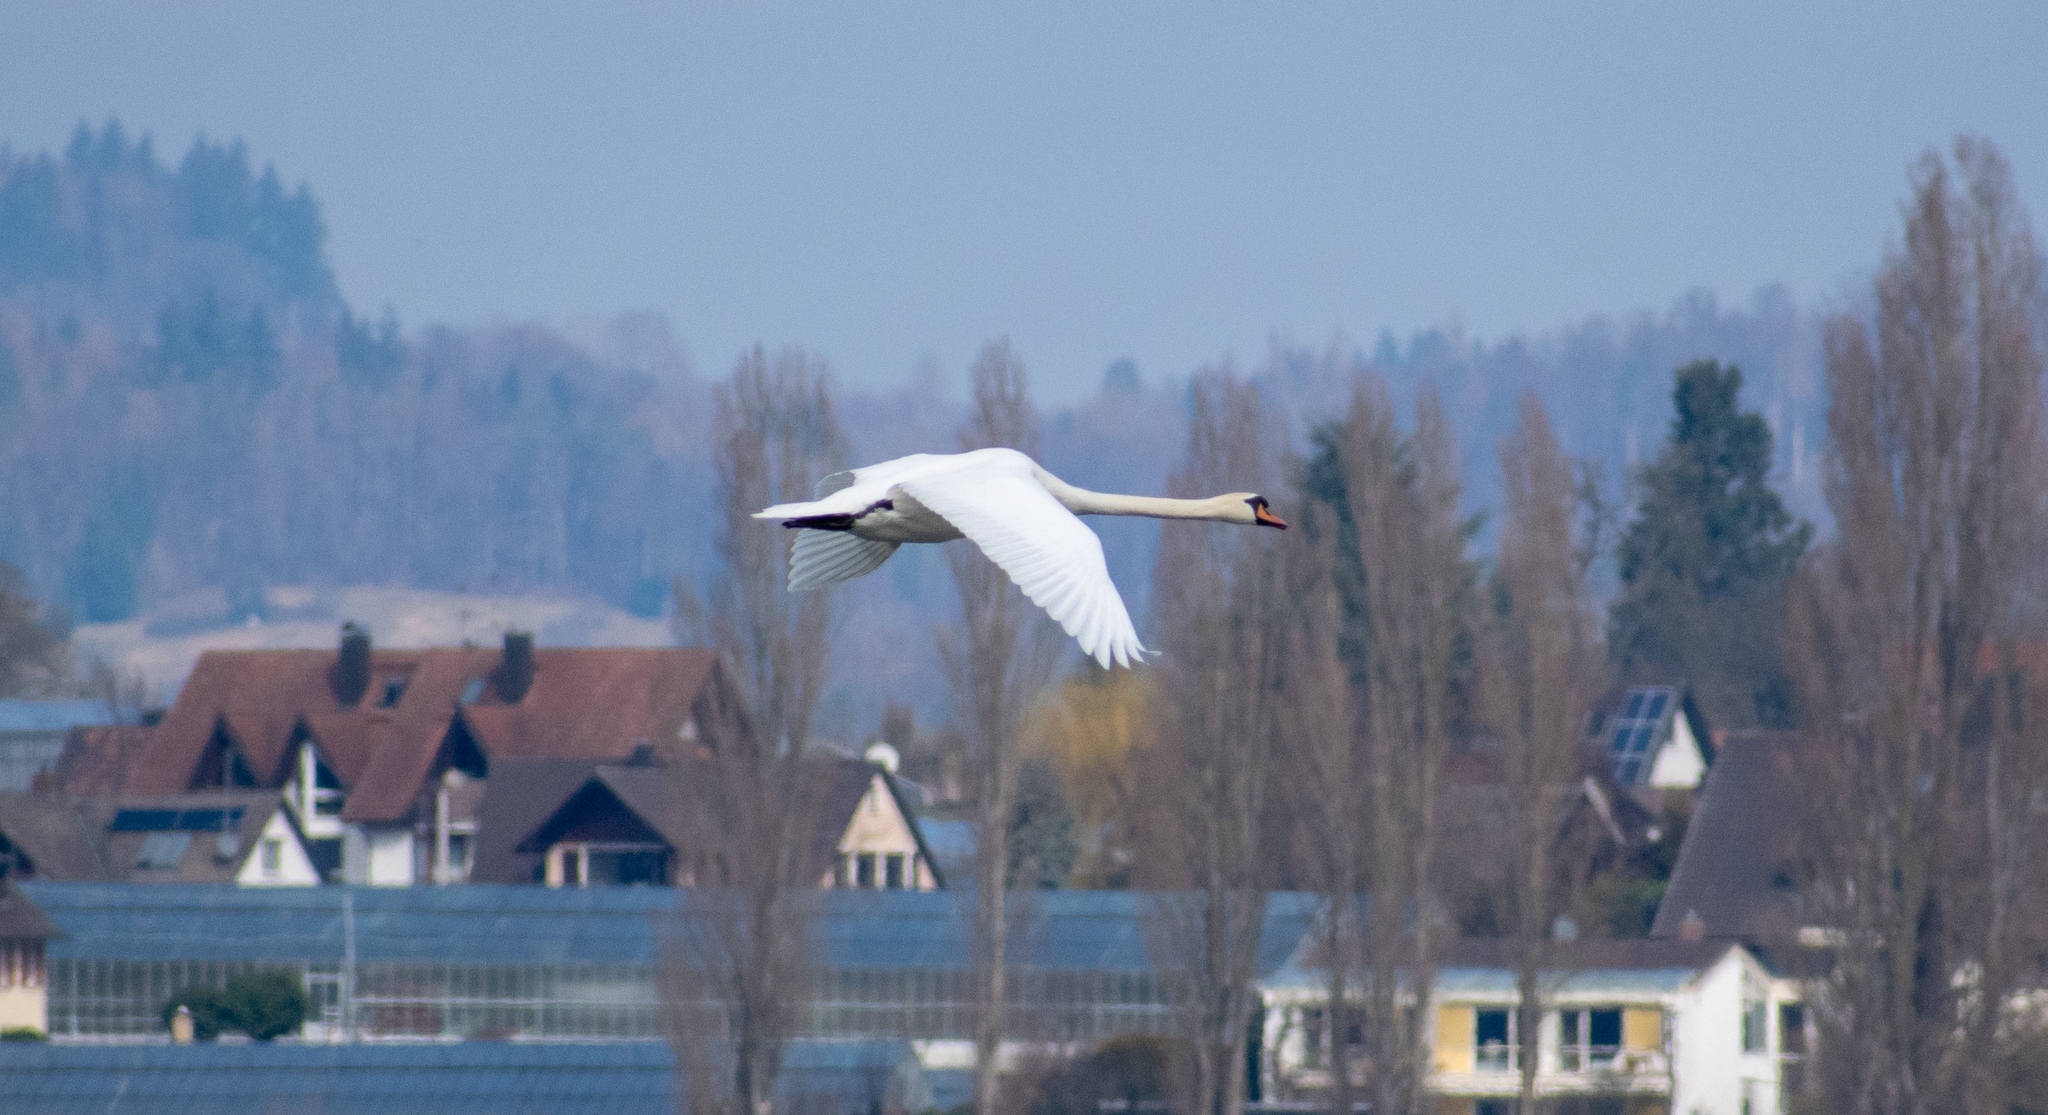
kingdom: Animalia
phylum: Chordata
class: Aves
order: Anseriformes
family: Anatidae
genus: Cygnus
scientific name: Cygnus olor
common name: Mute swan
